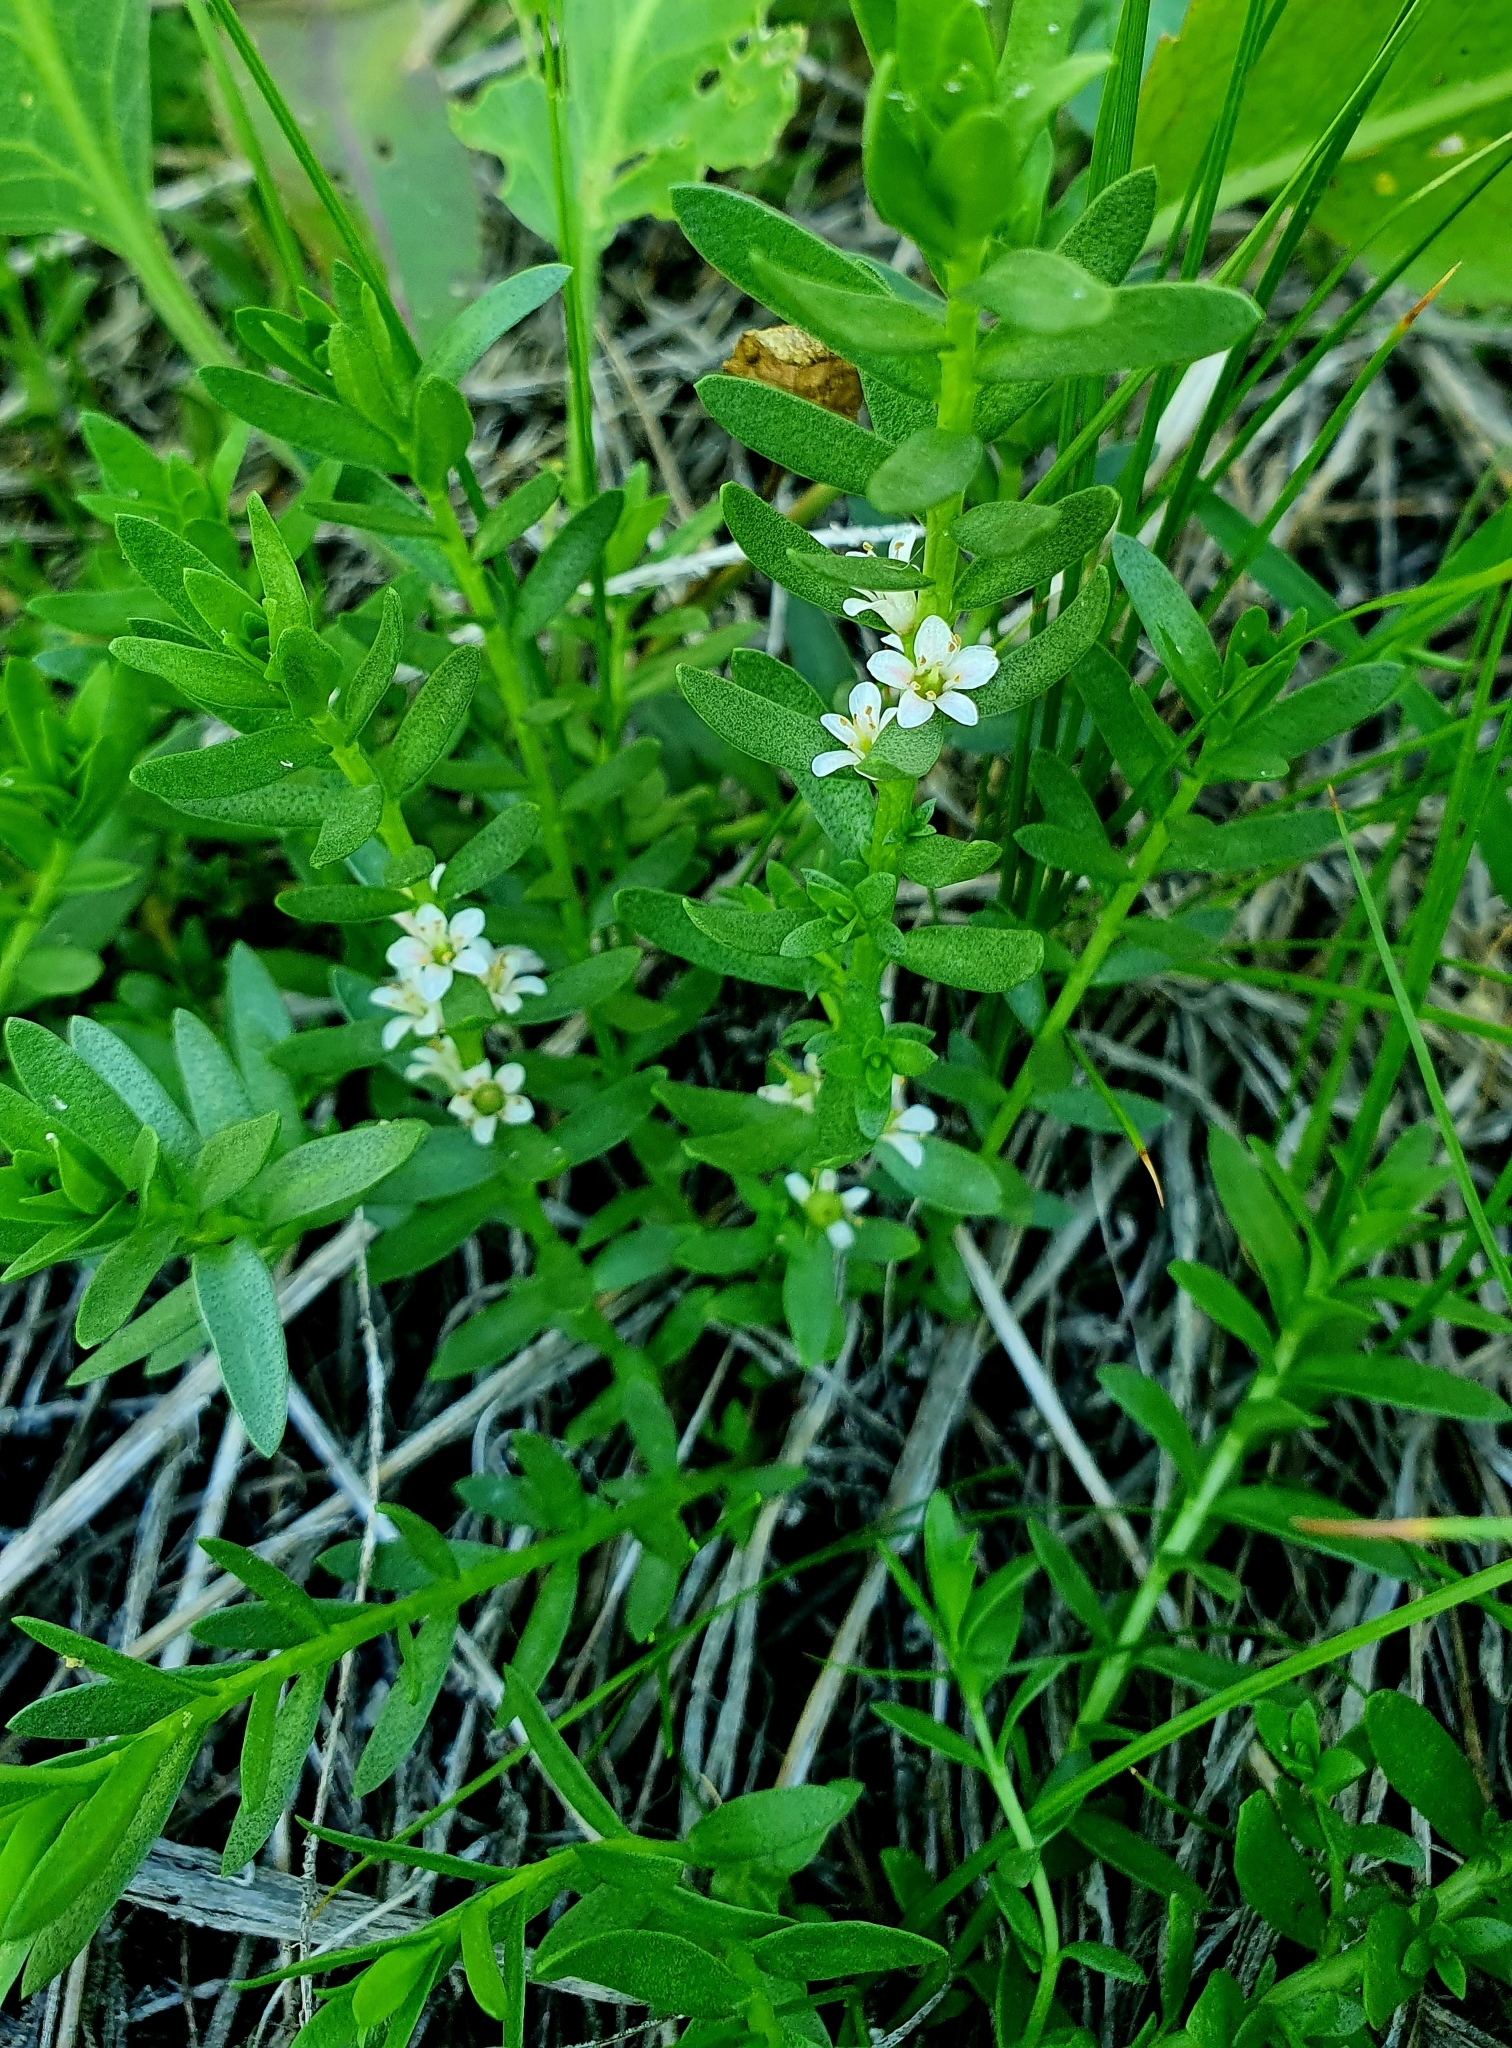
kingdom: Plantae
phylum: Tracheophyta
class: Magnoliopsida
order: Ericales
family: Primulaceae
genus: Lysimachia
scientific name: Lysimachia maritima
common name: Sea milkwort
